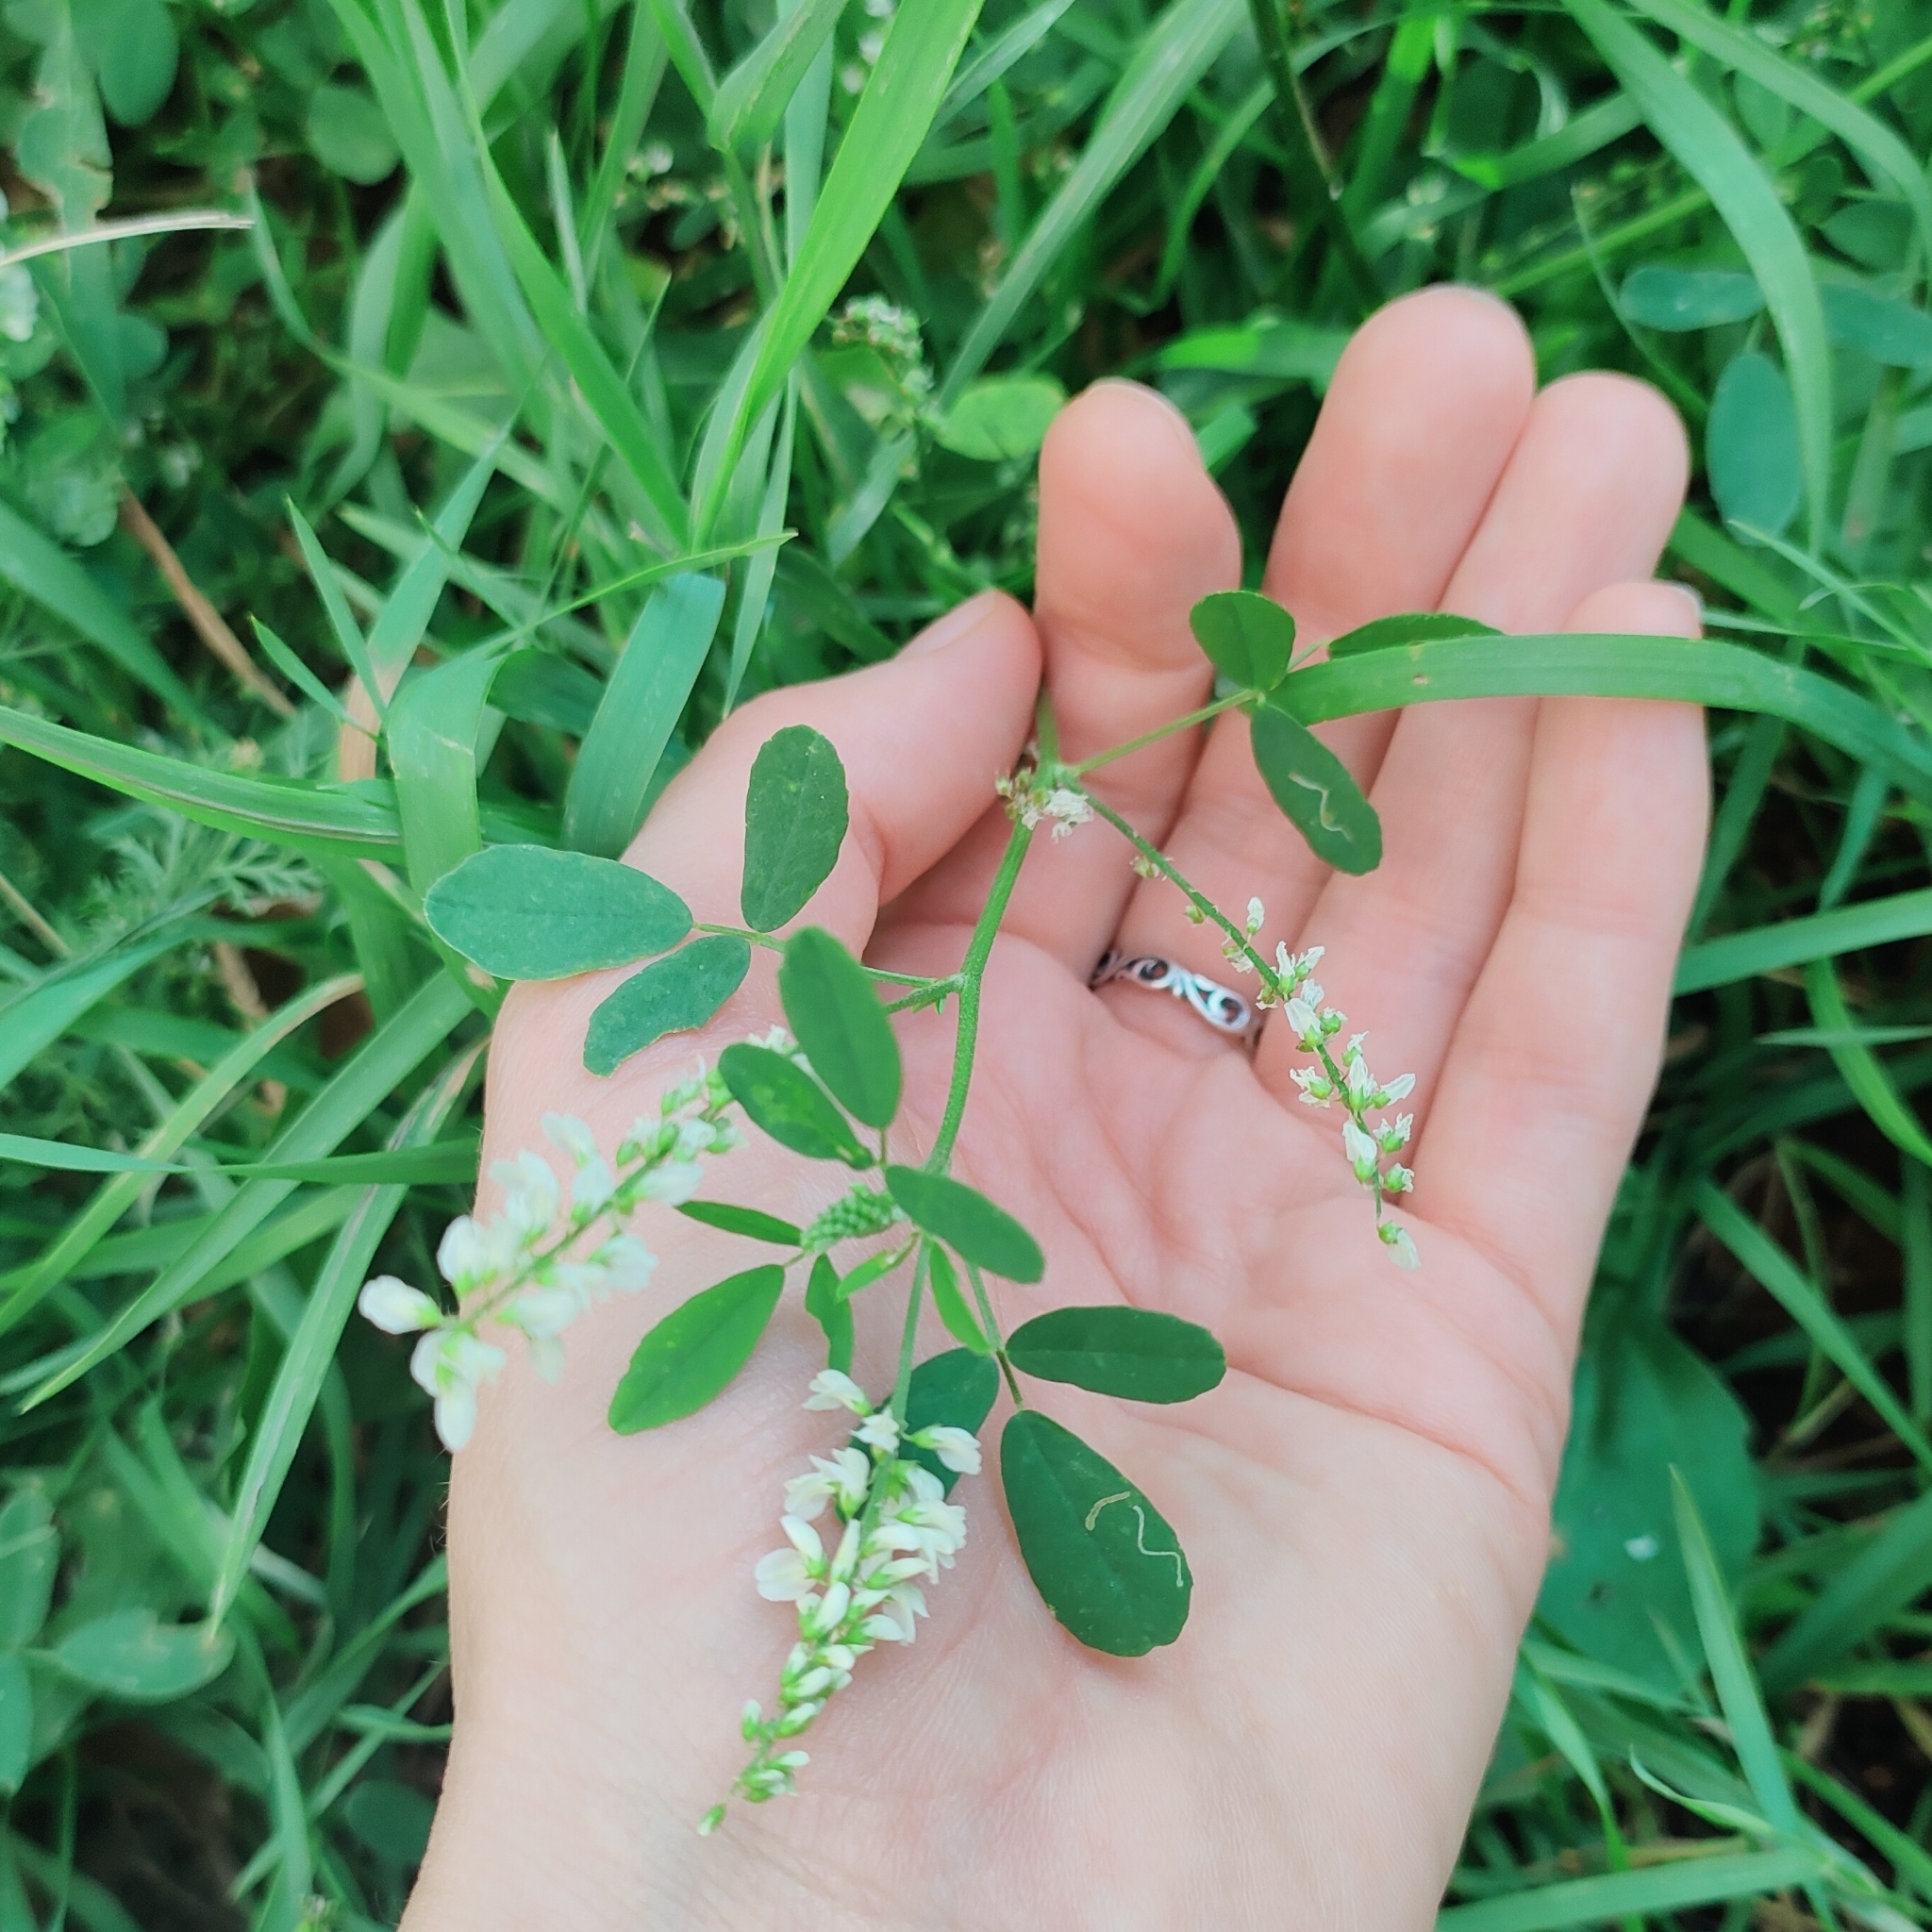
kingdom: Plantae
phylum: Tracheophyta
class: Magnoliopsida
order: Fabales
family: Fabaceae
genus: Melilotus
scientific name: Melilotus albus
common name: White melilot
